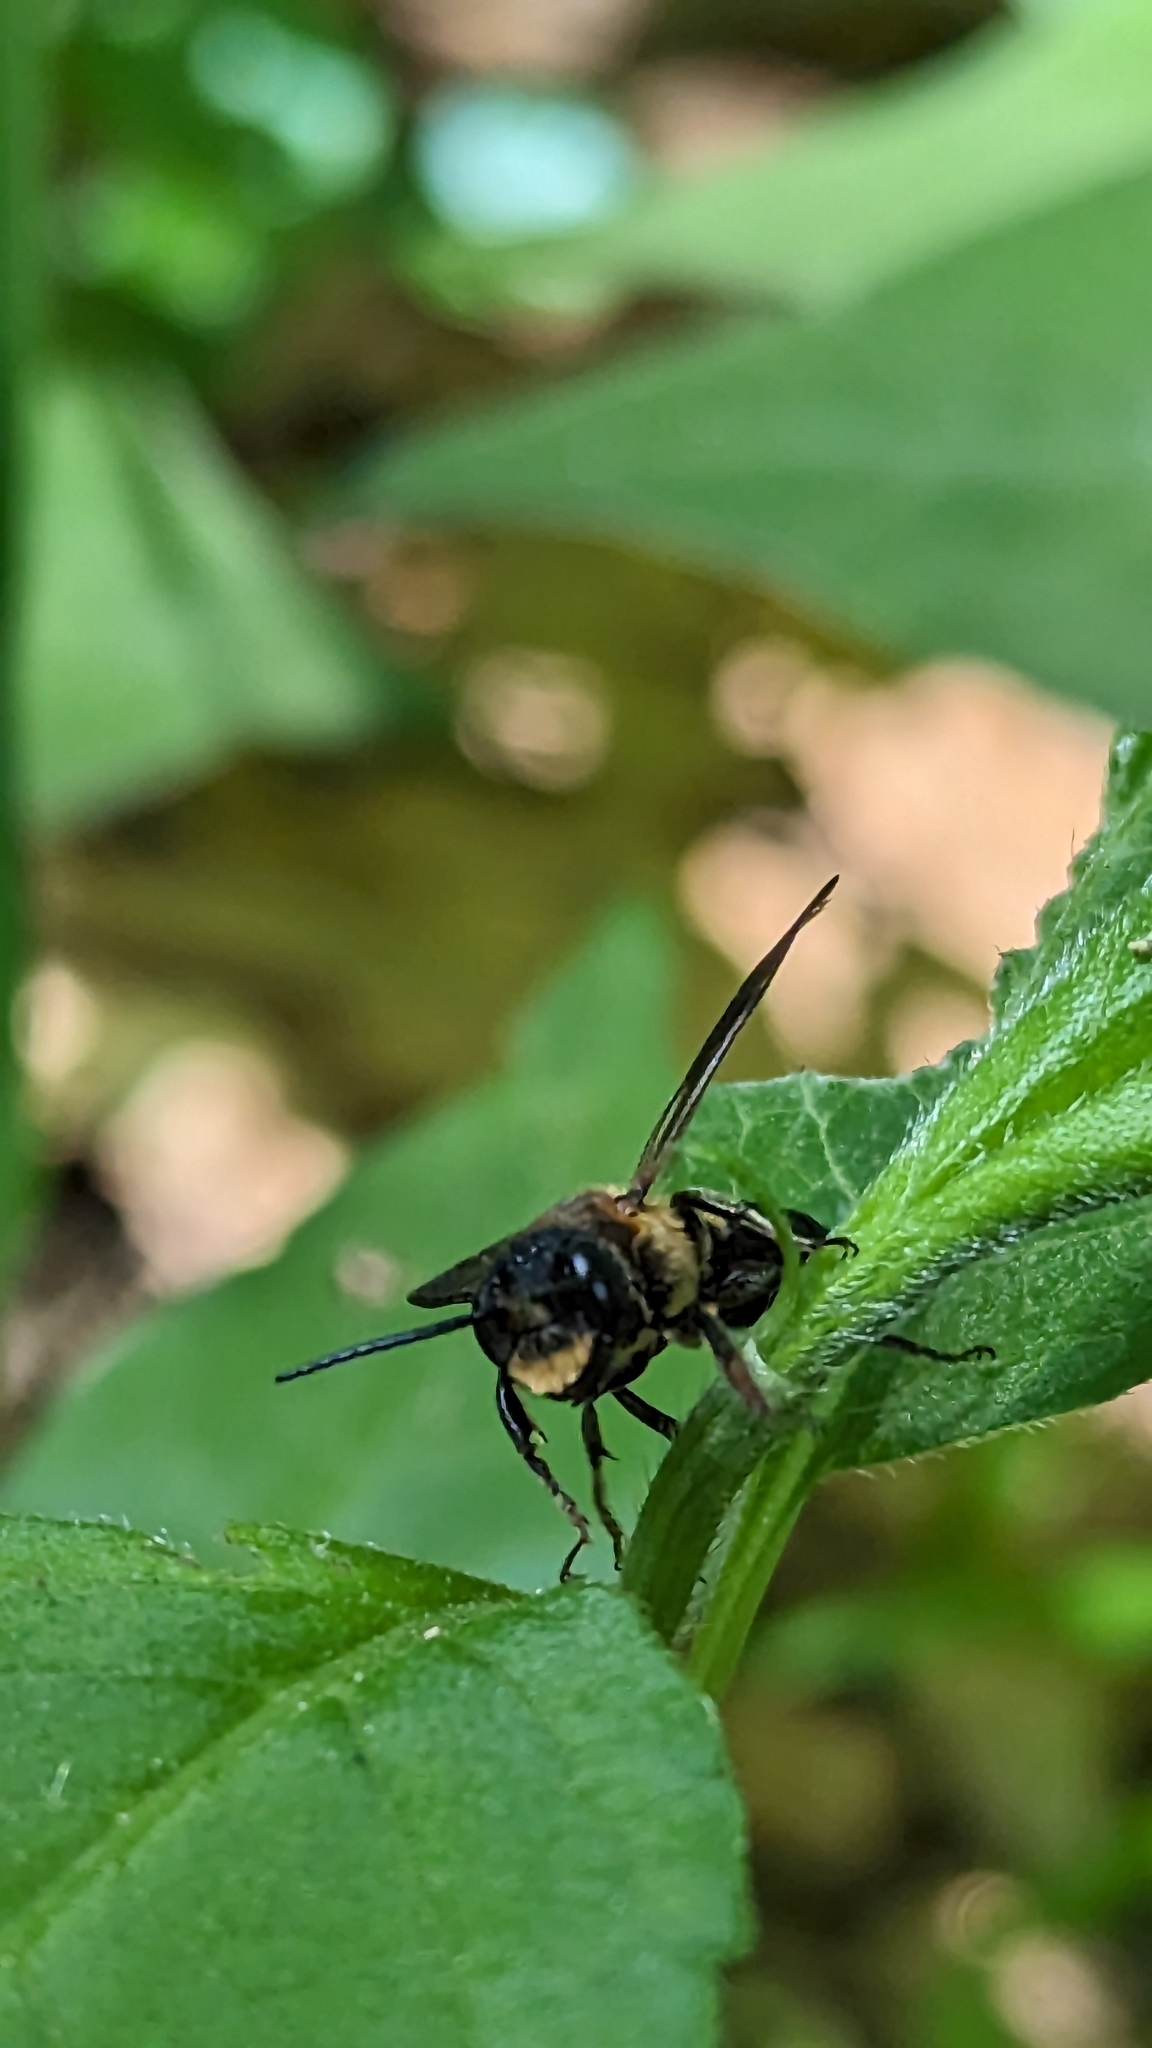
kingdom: Animalia
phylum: Arthropoda
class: Insecta
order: Hymenoptera
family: Megachilidae
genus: Megachile
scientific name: Megachile sculpturalis
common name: Sculptured resin bee
